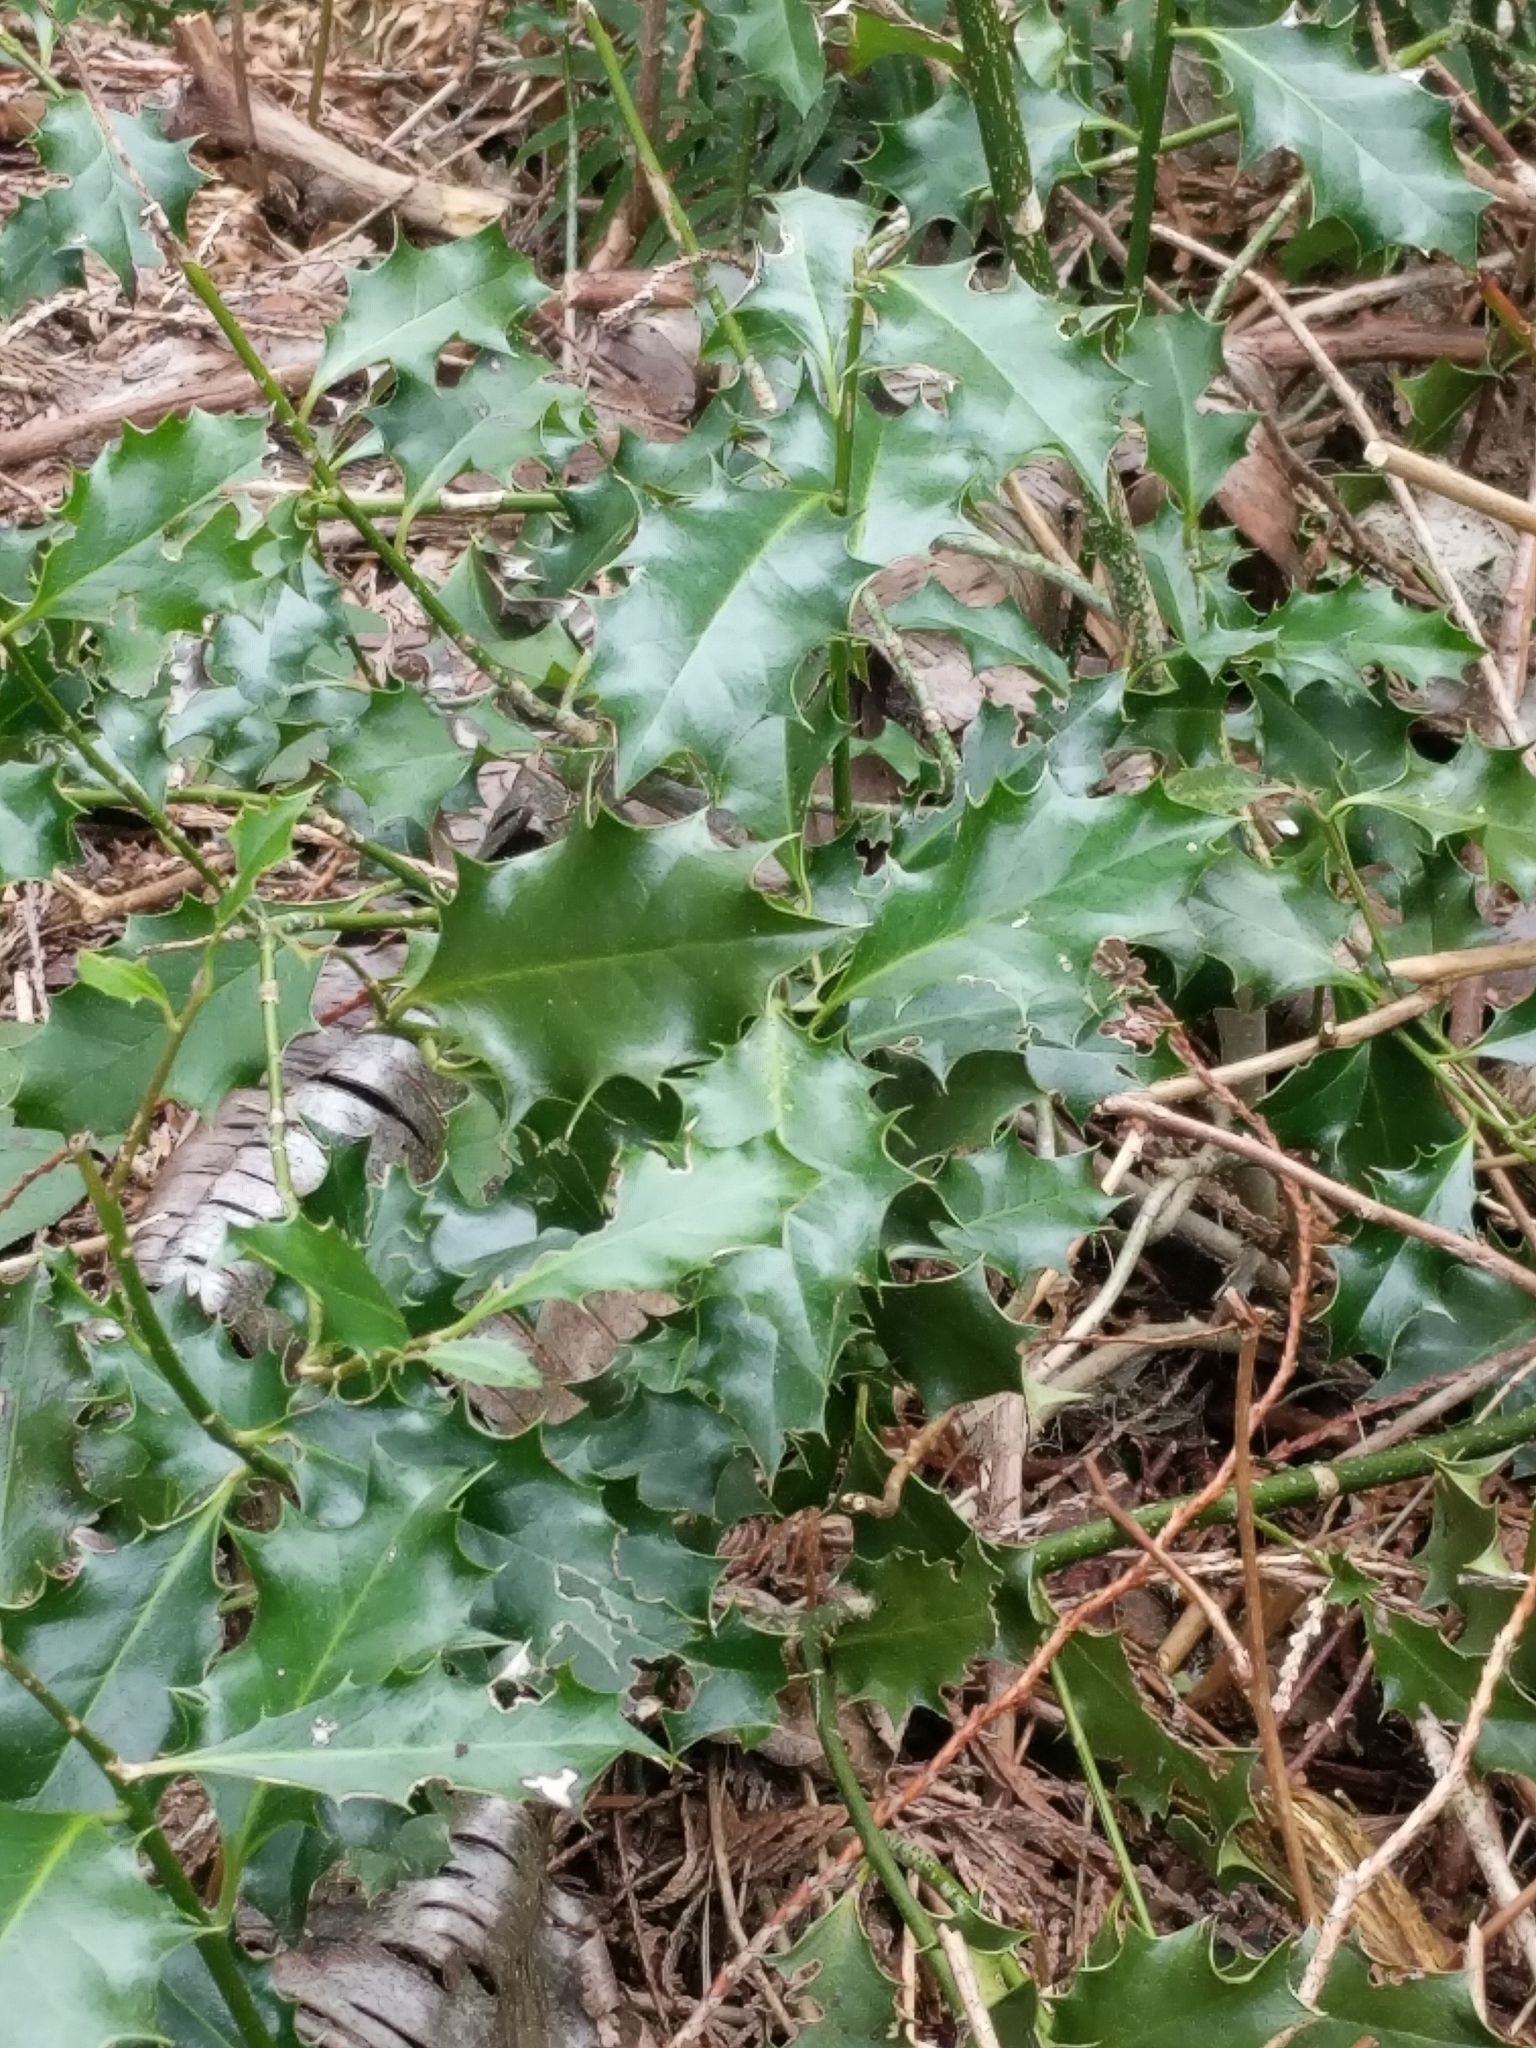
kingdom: Plantae
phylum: Tracheophyta
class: Magnoliopsida
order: Aquifoliales
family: Aquifoliaceae
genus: Ilex
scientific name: Ilex aquifolium
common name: English holly
